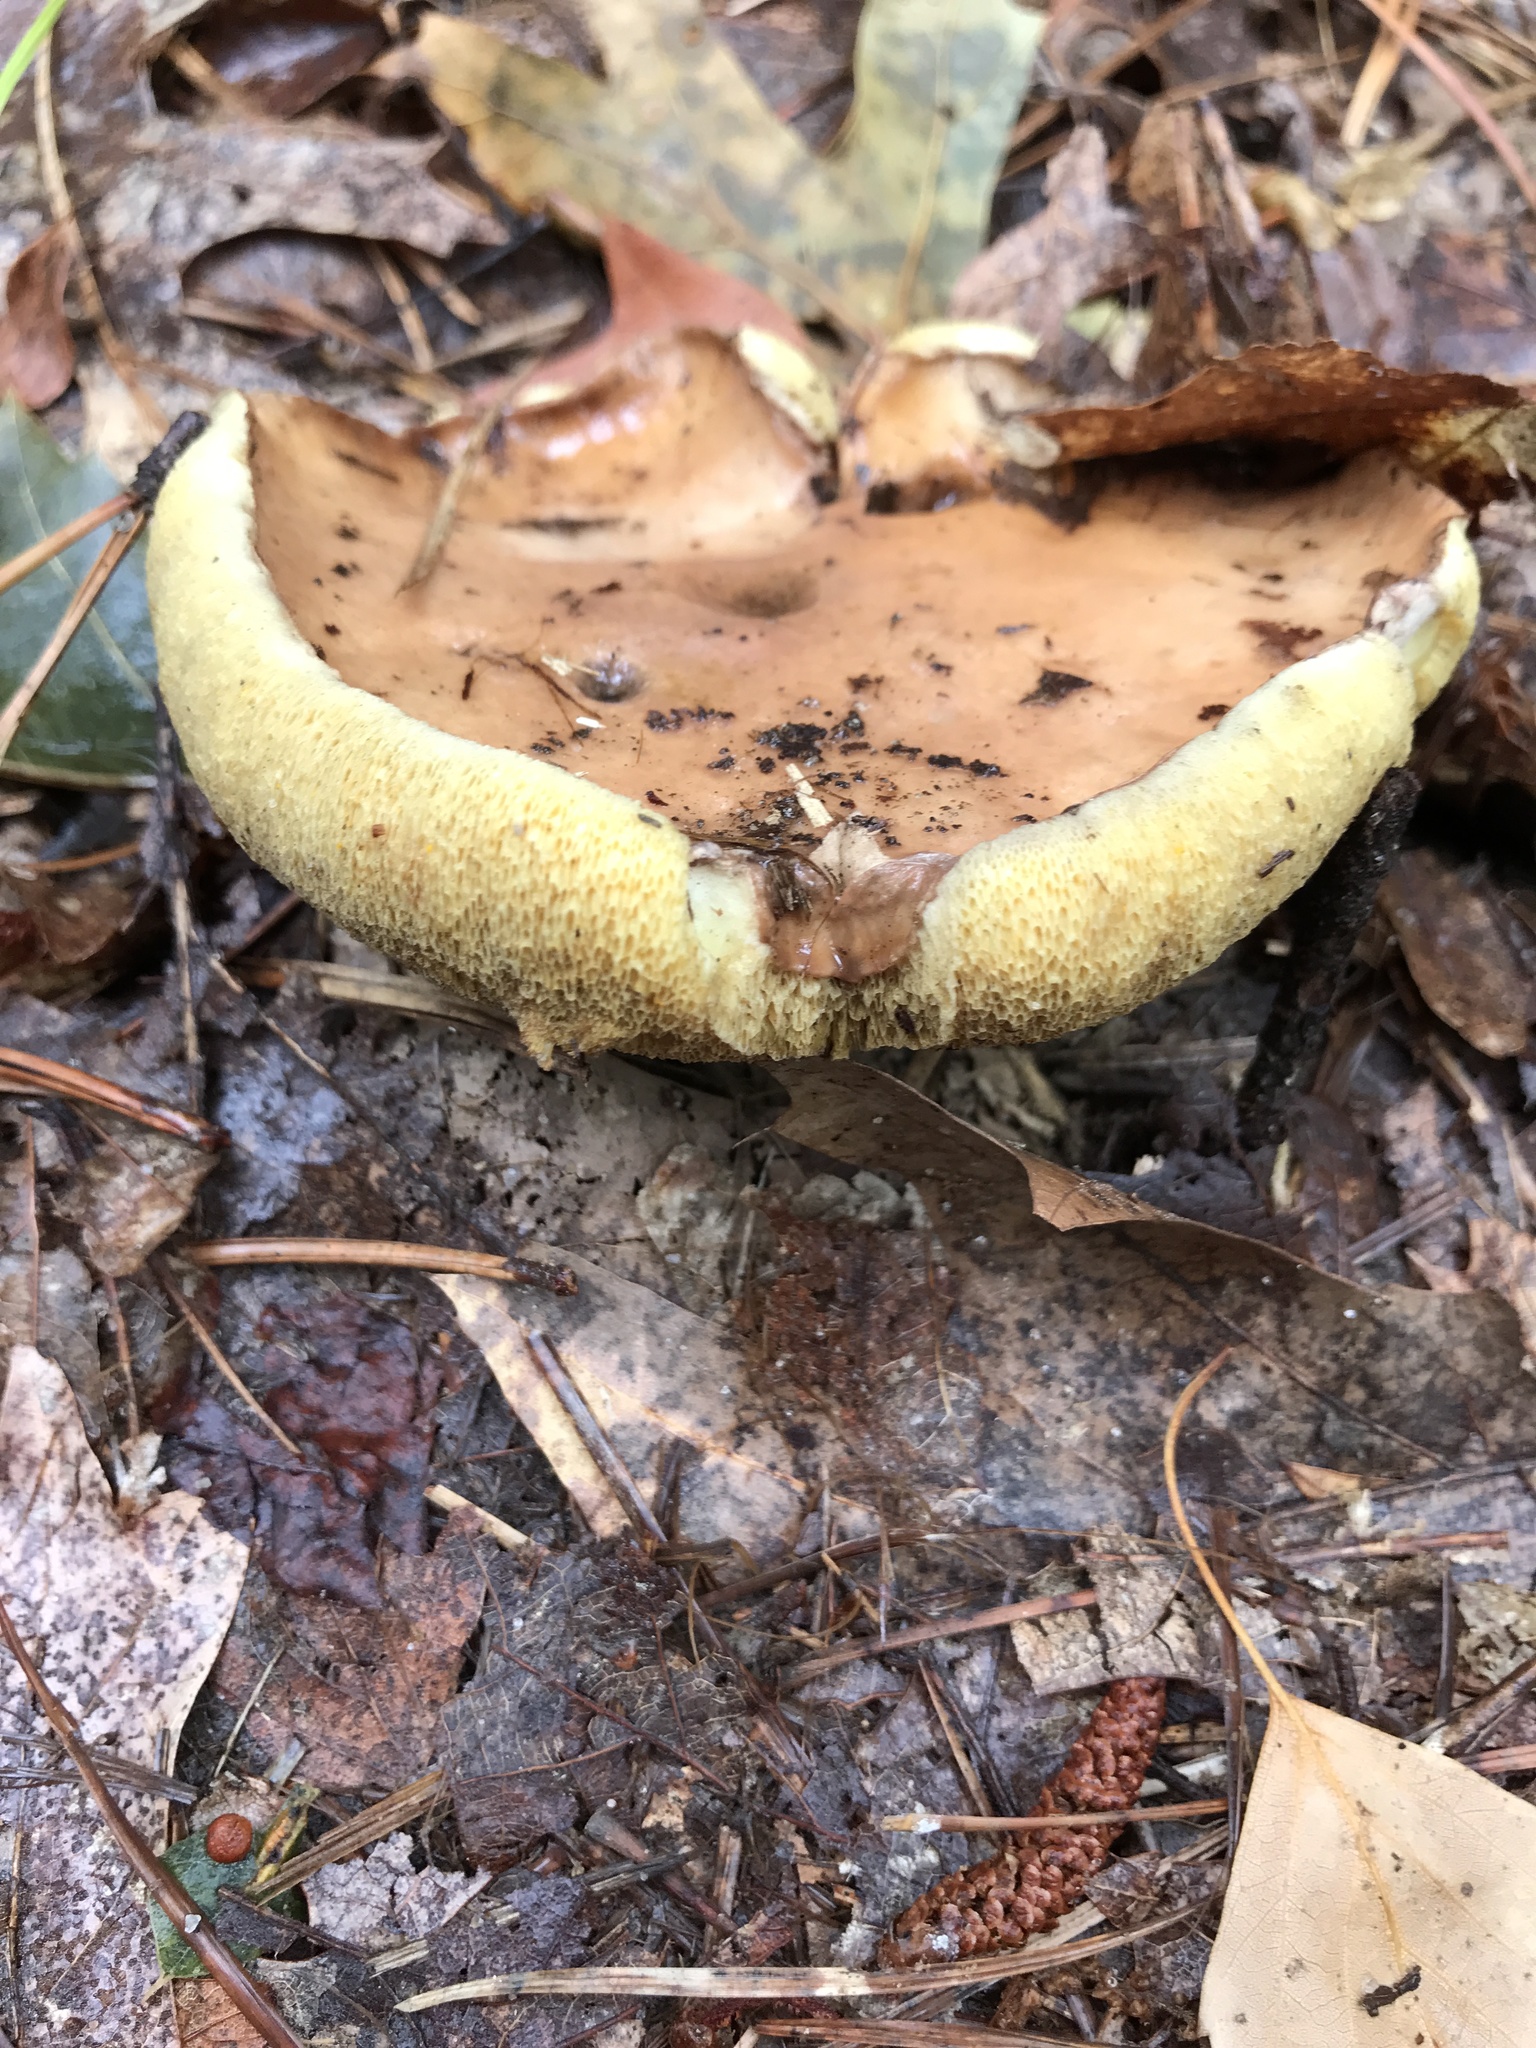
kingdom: Fungi
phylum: Basidiomycota
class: Agaricomycetes
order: Boletales
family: Suillaceae
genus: Suillus
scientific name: Suillus brevipes
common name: Short-stalked suillus
